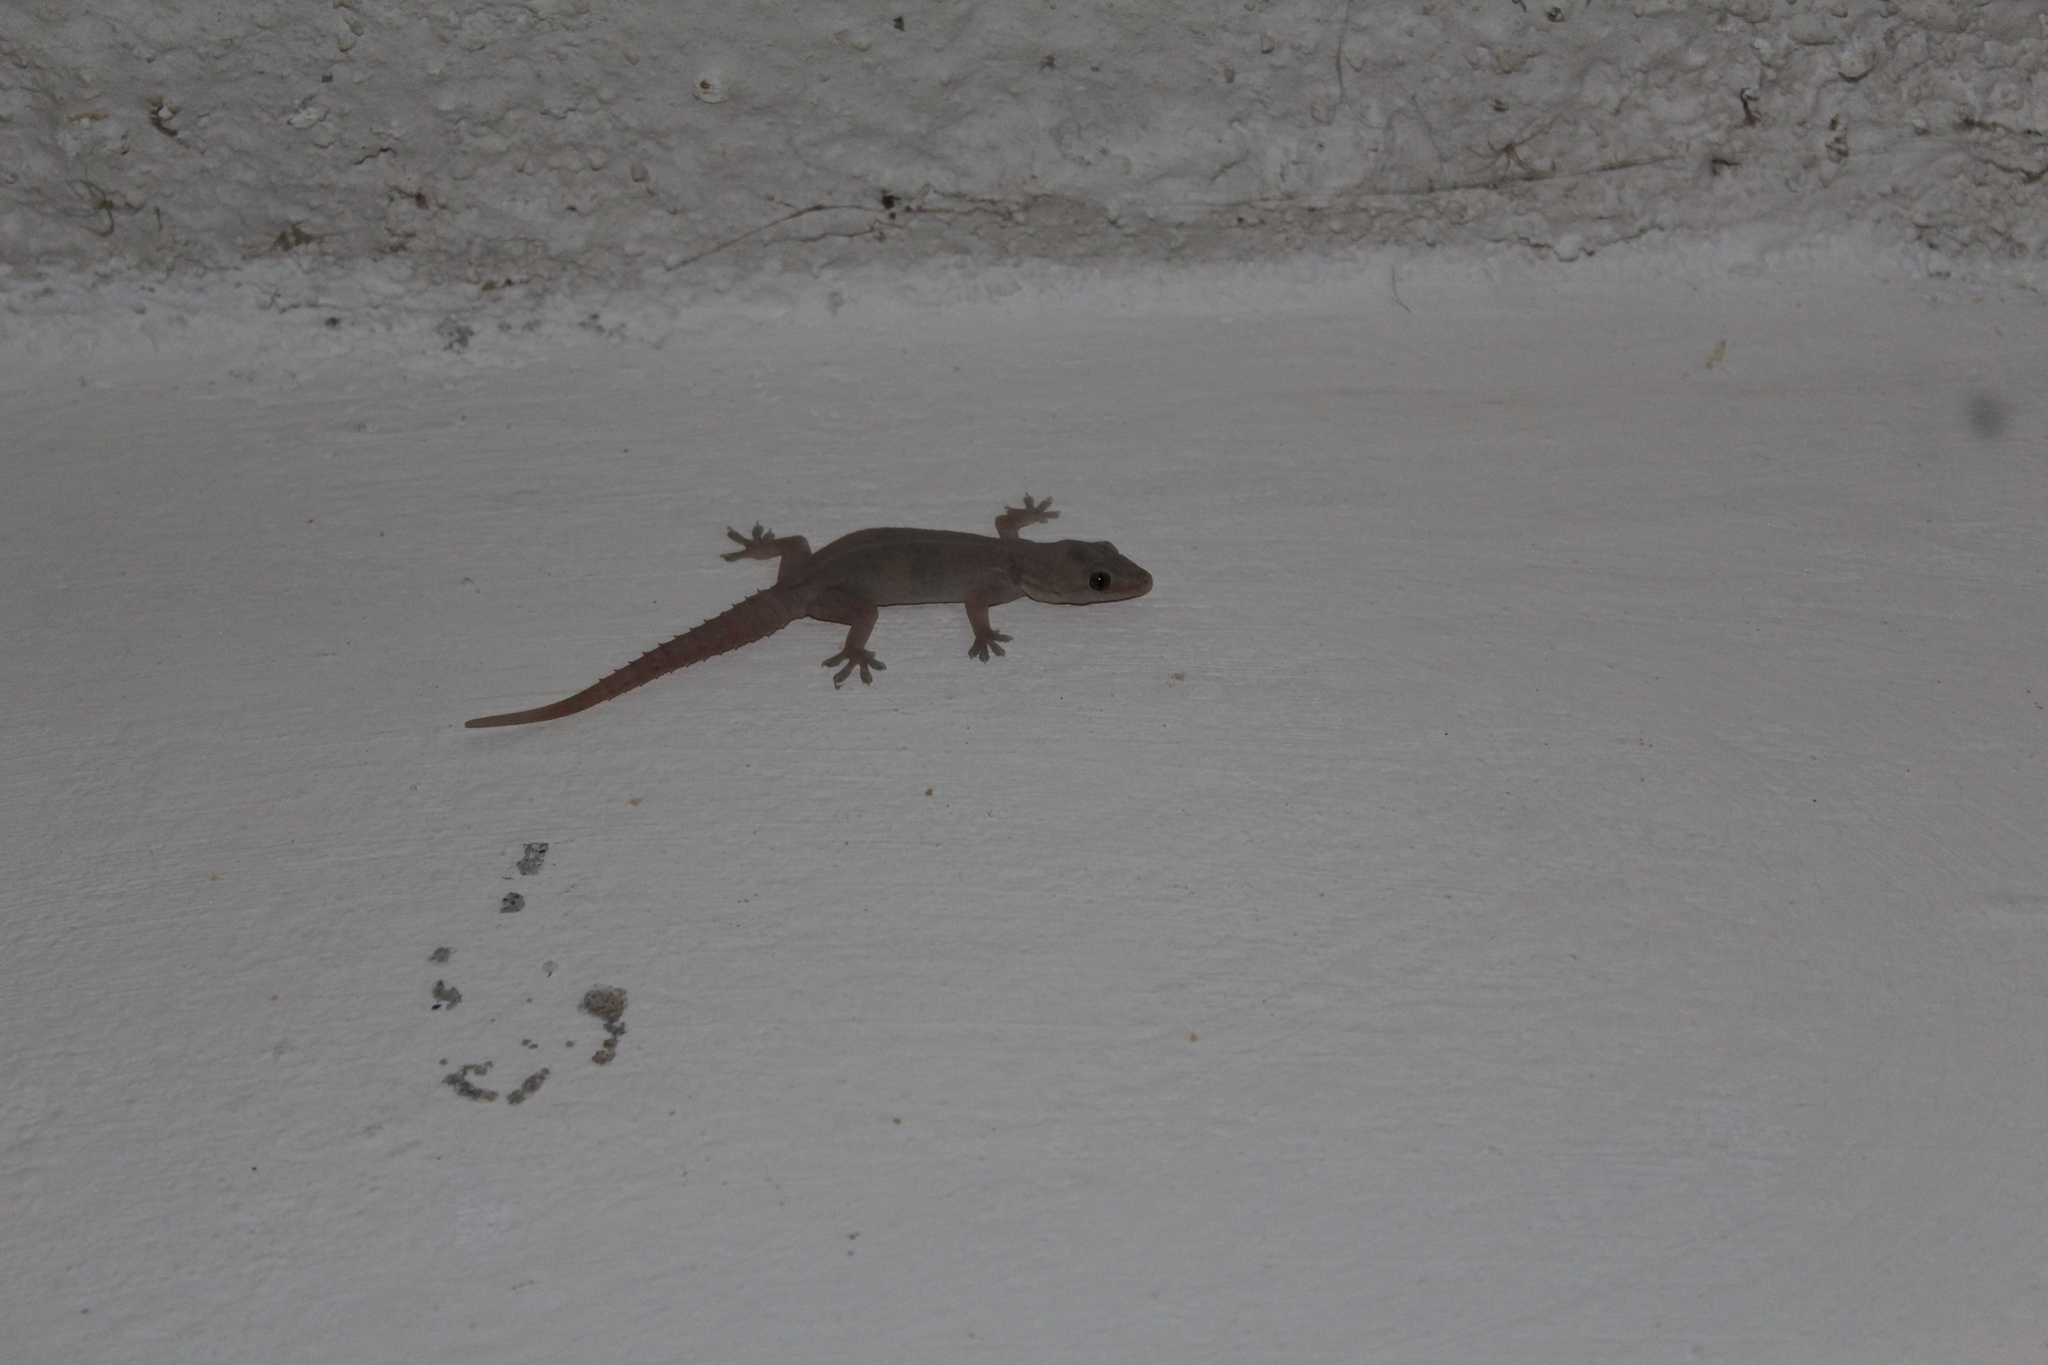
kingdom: Animalia
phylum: Chordata
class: Squamata
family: Gekkonidae
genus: Hemidactylus
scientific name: Hemidactylus frenatus
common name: Common house gecko
